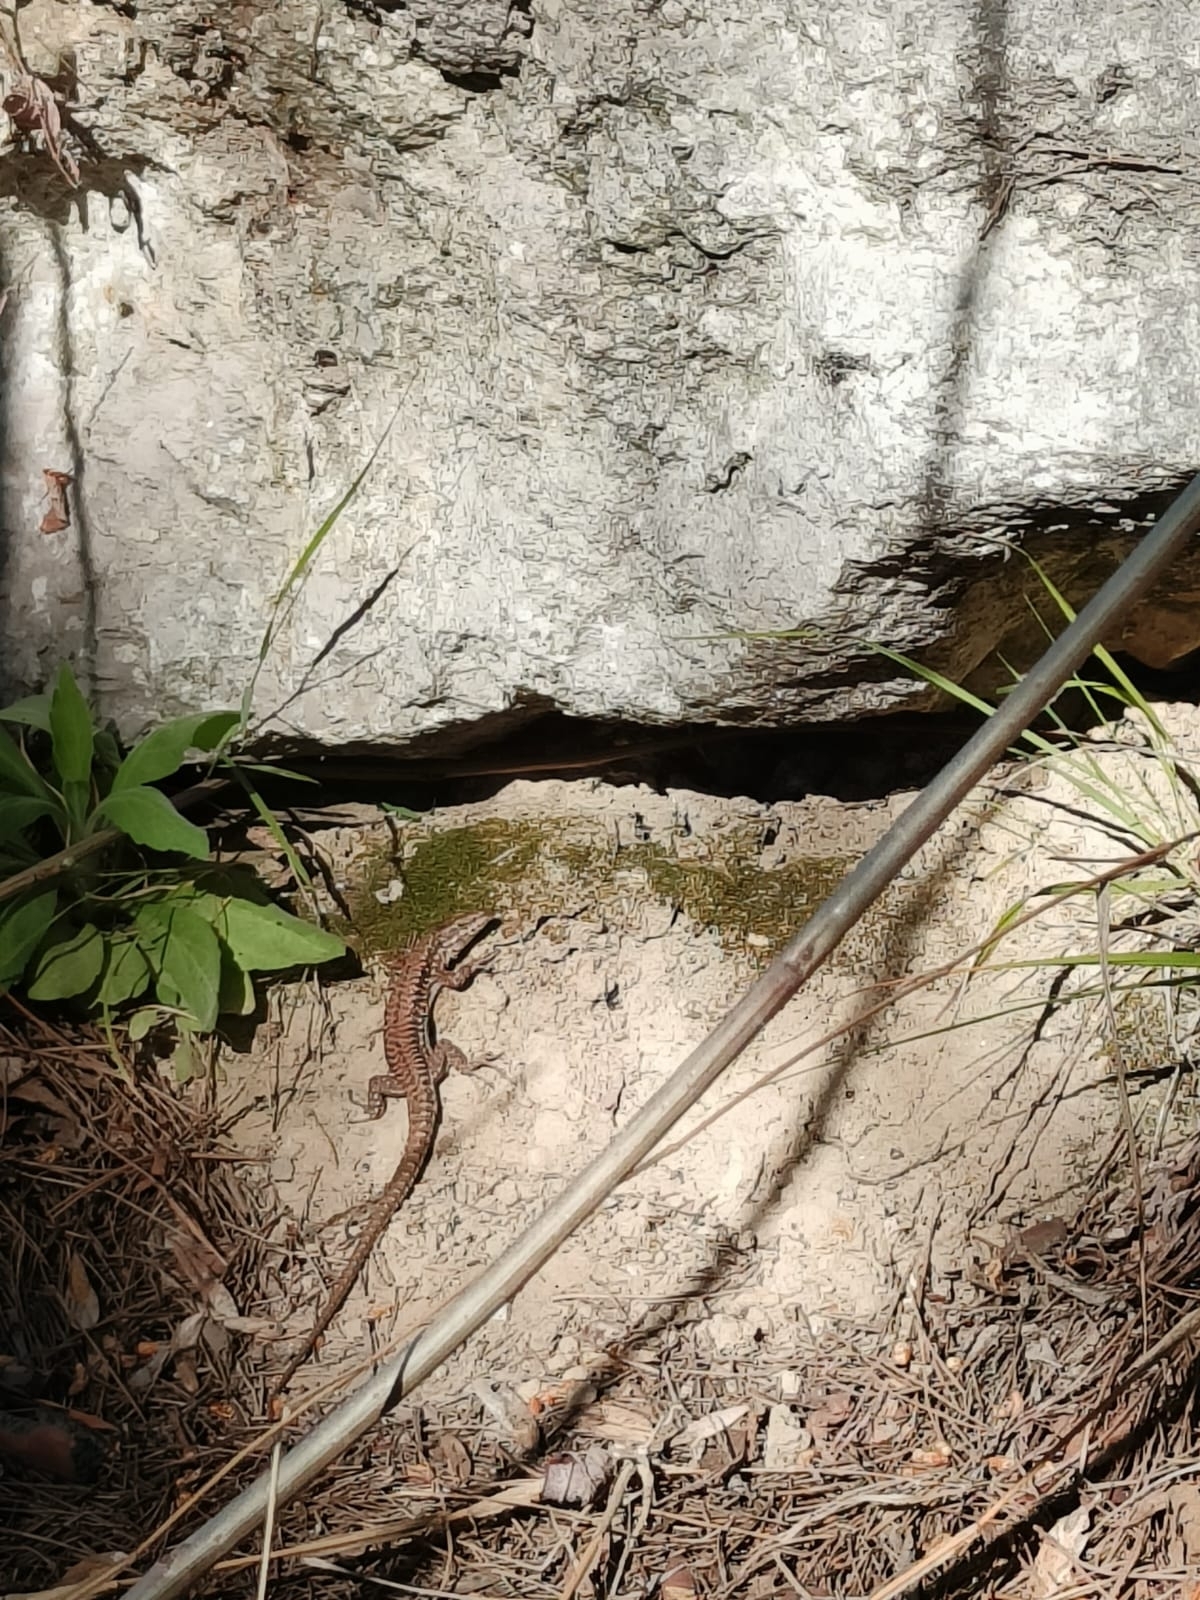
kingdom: Animalia
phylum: Chordata
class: Squamata
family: Lacertidae
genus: Podarcis
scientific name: Podarcis muralis
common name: Common wall lizard
